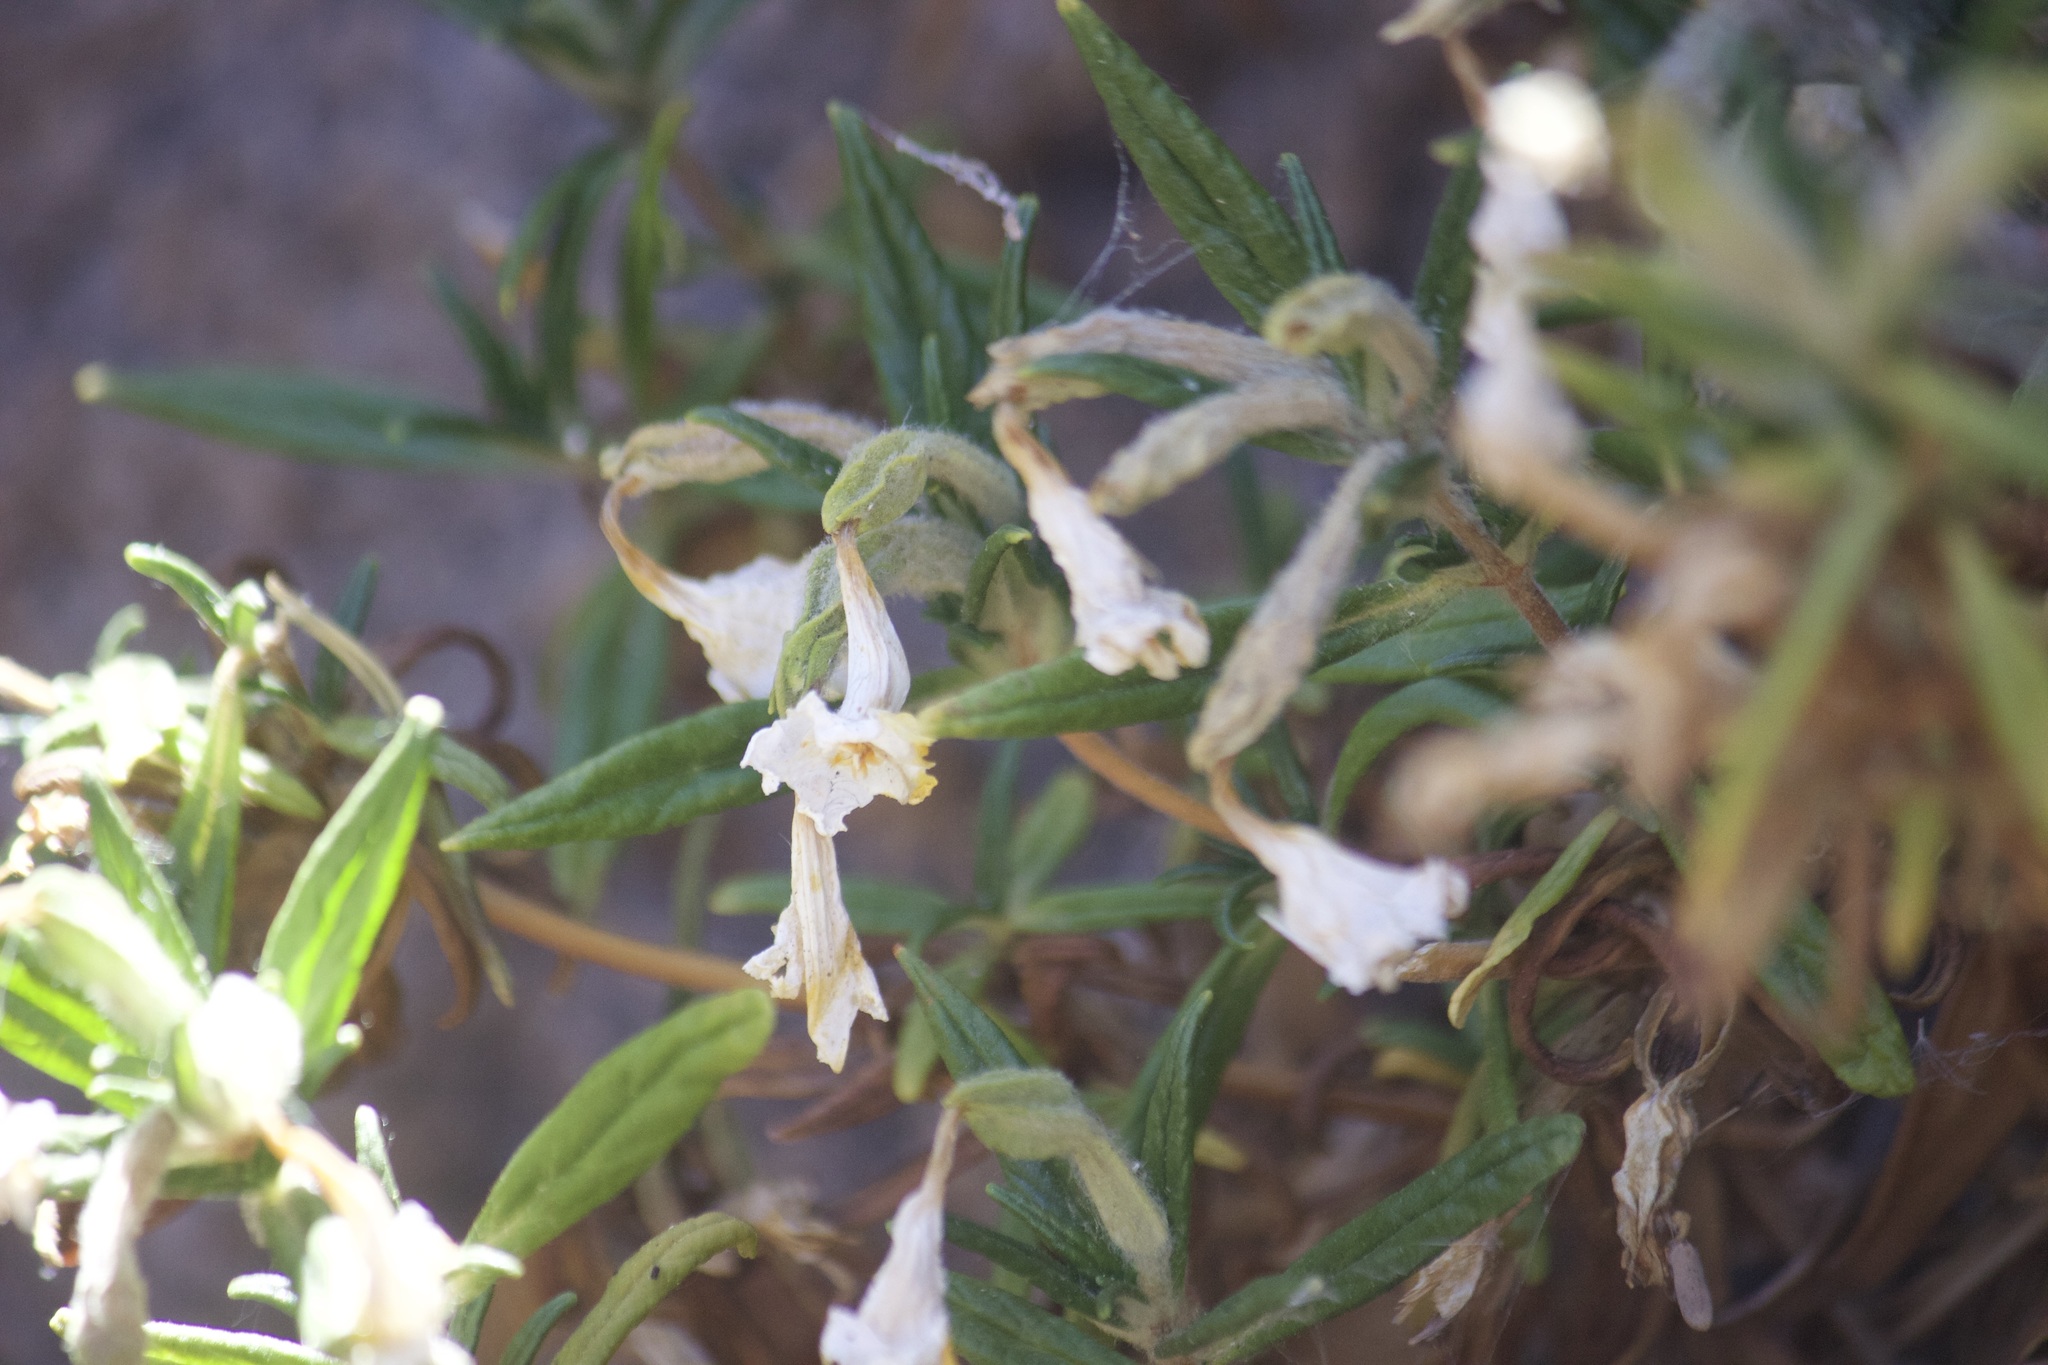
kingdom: Plantae
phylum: Tracheophyta
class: Magnoliopsida
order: Lamiales
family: Phrymaceae
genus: Diplacus
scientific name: Diplacus calycinus
